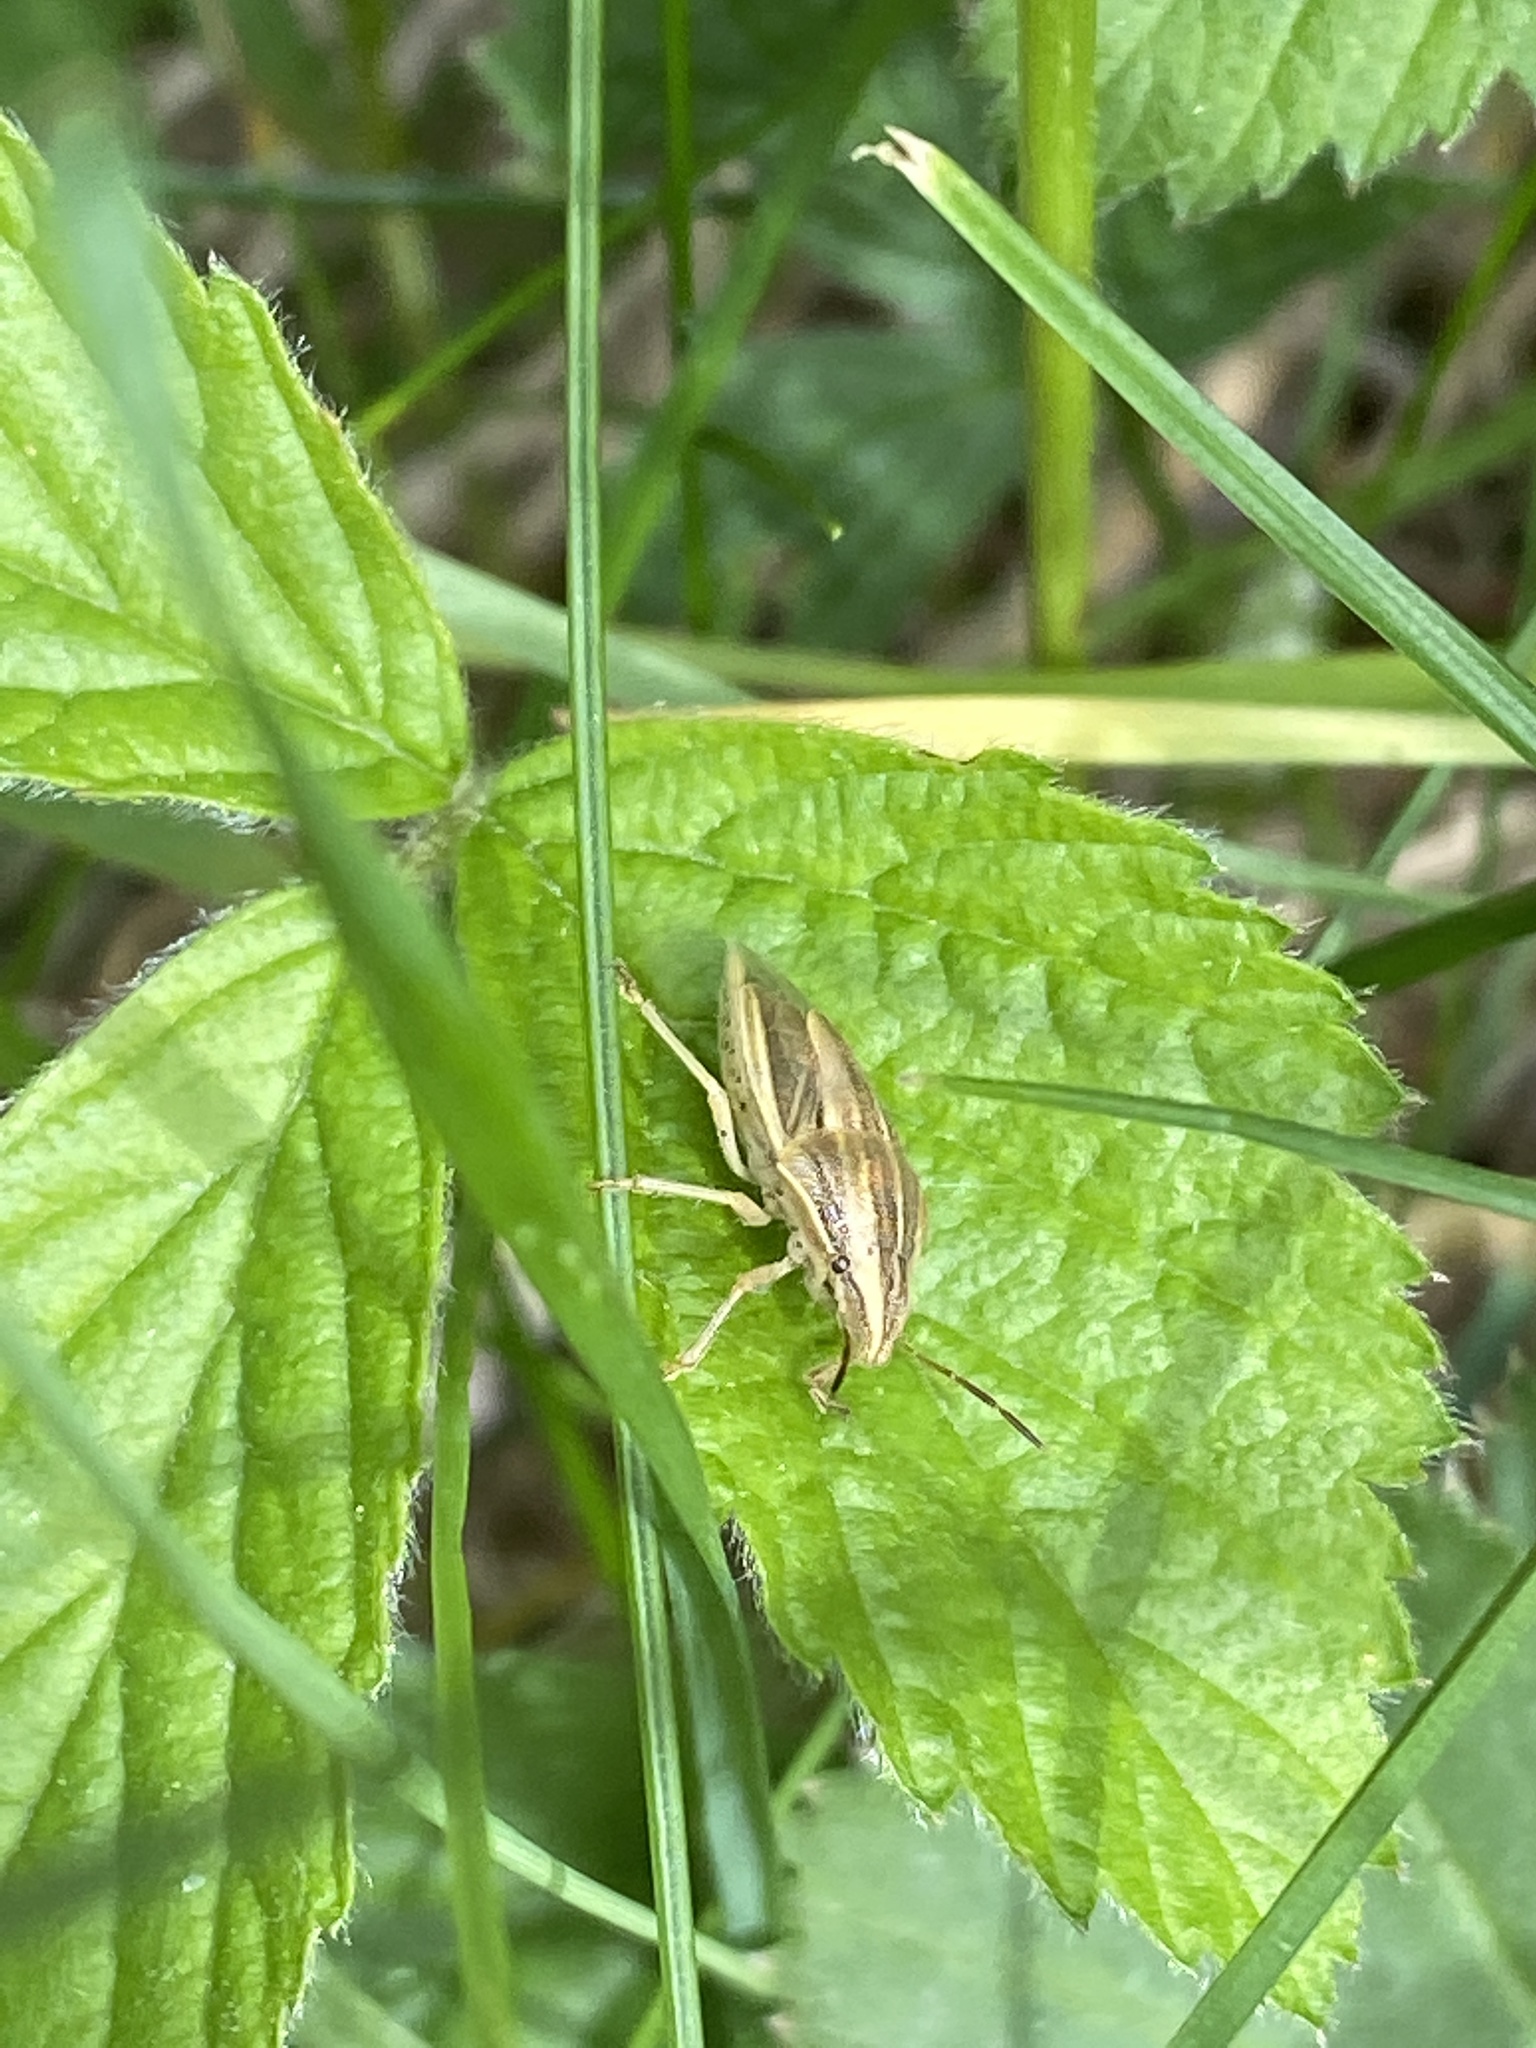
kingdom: Animalia
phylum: Arthropoda
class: Insecta
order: Hemiptera
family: Pentatomidae
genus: Aelia
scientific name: Aelia acuminata
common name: Bishop's mitre
